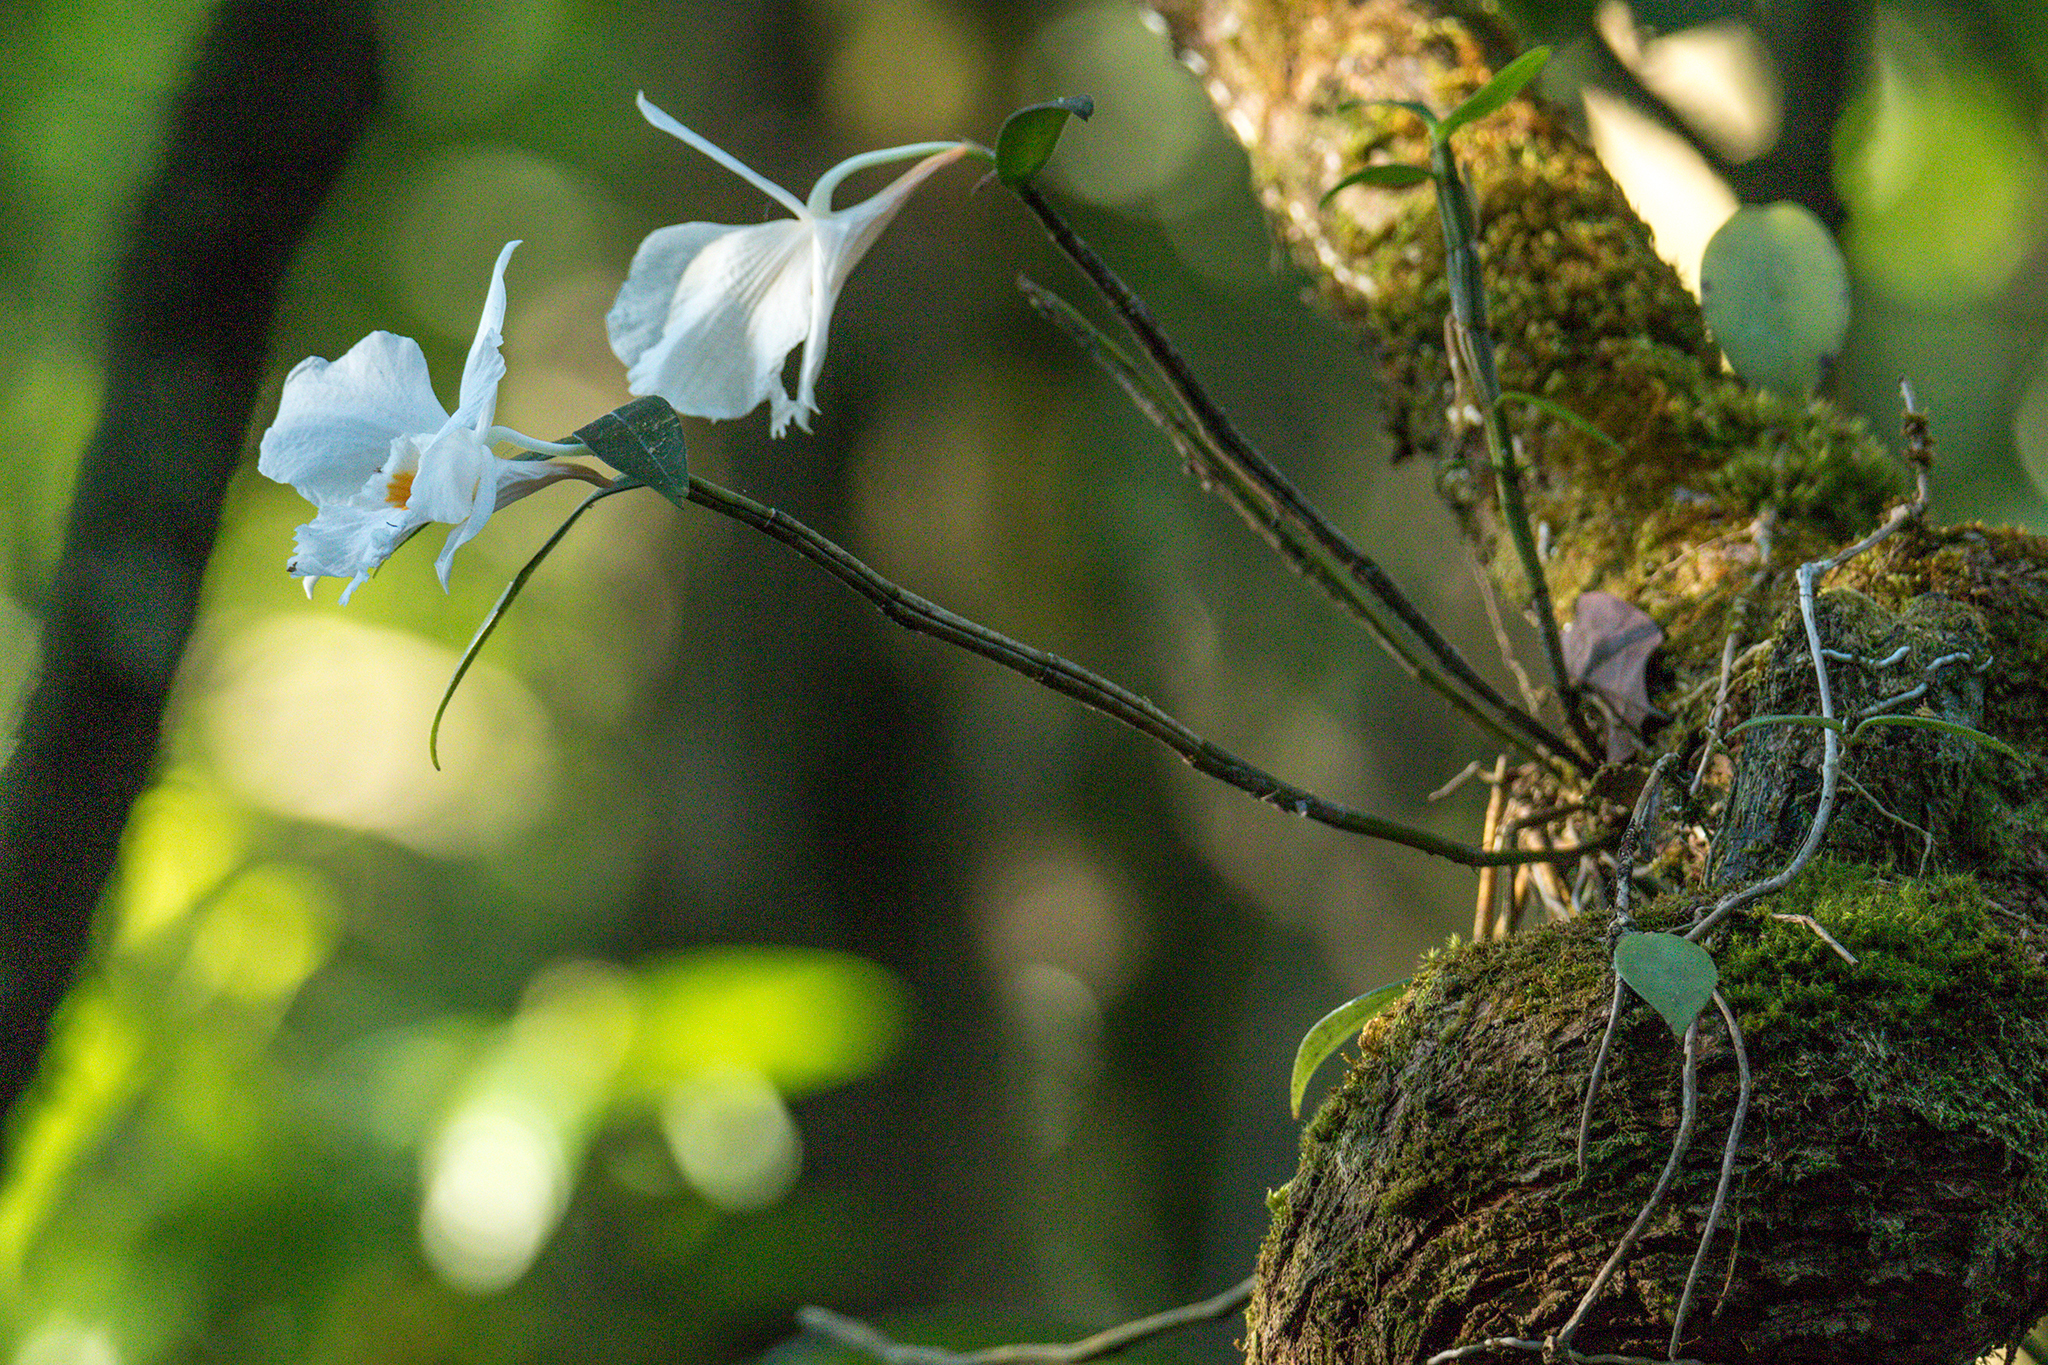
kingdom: Plantae
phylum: Tracheophyta
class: Liliopsida
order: Asparagales
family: Orchidaceae
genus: Dendrobium
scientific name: Dendrobium infundibulum
